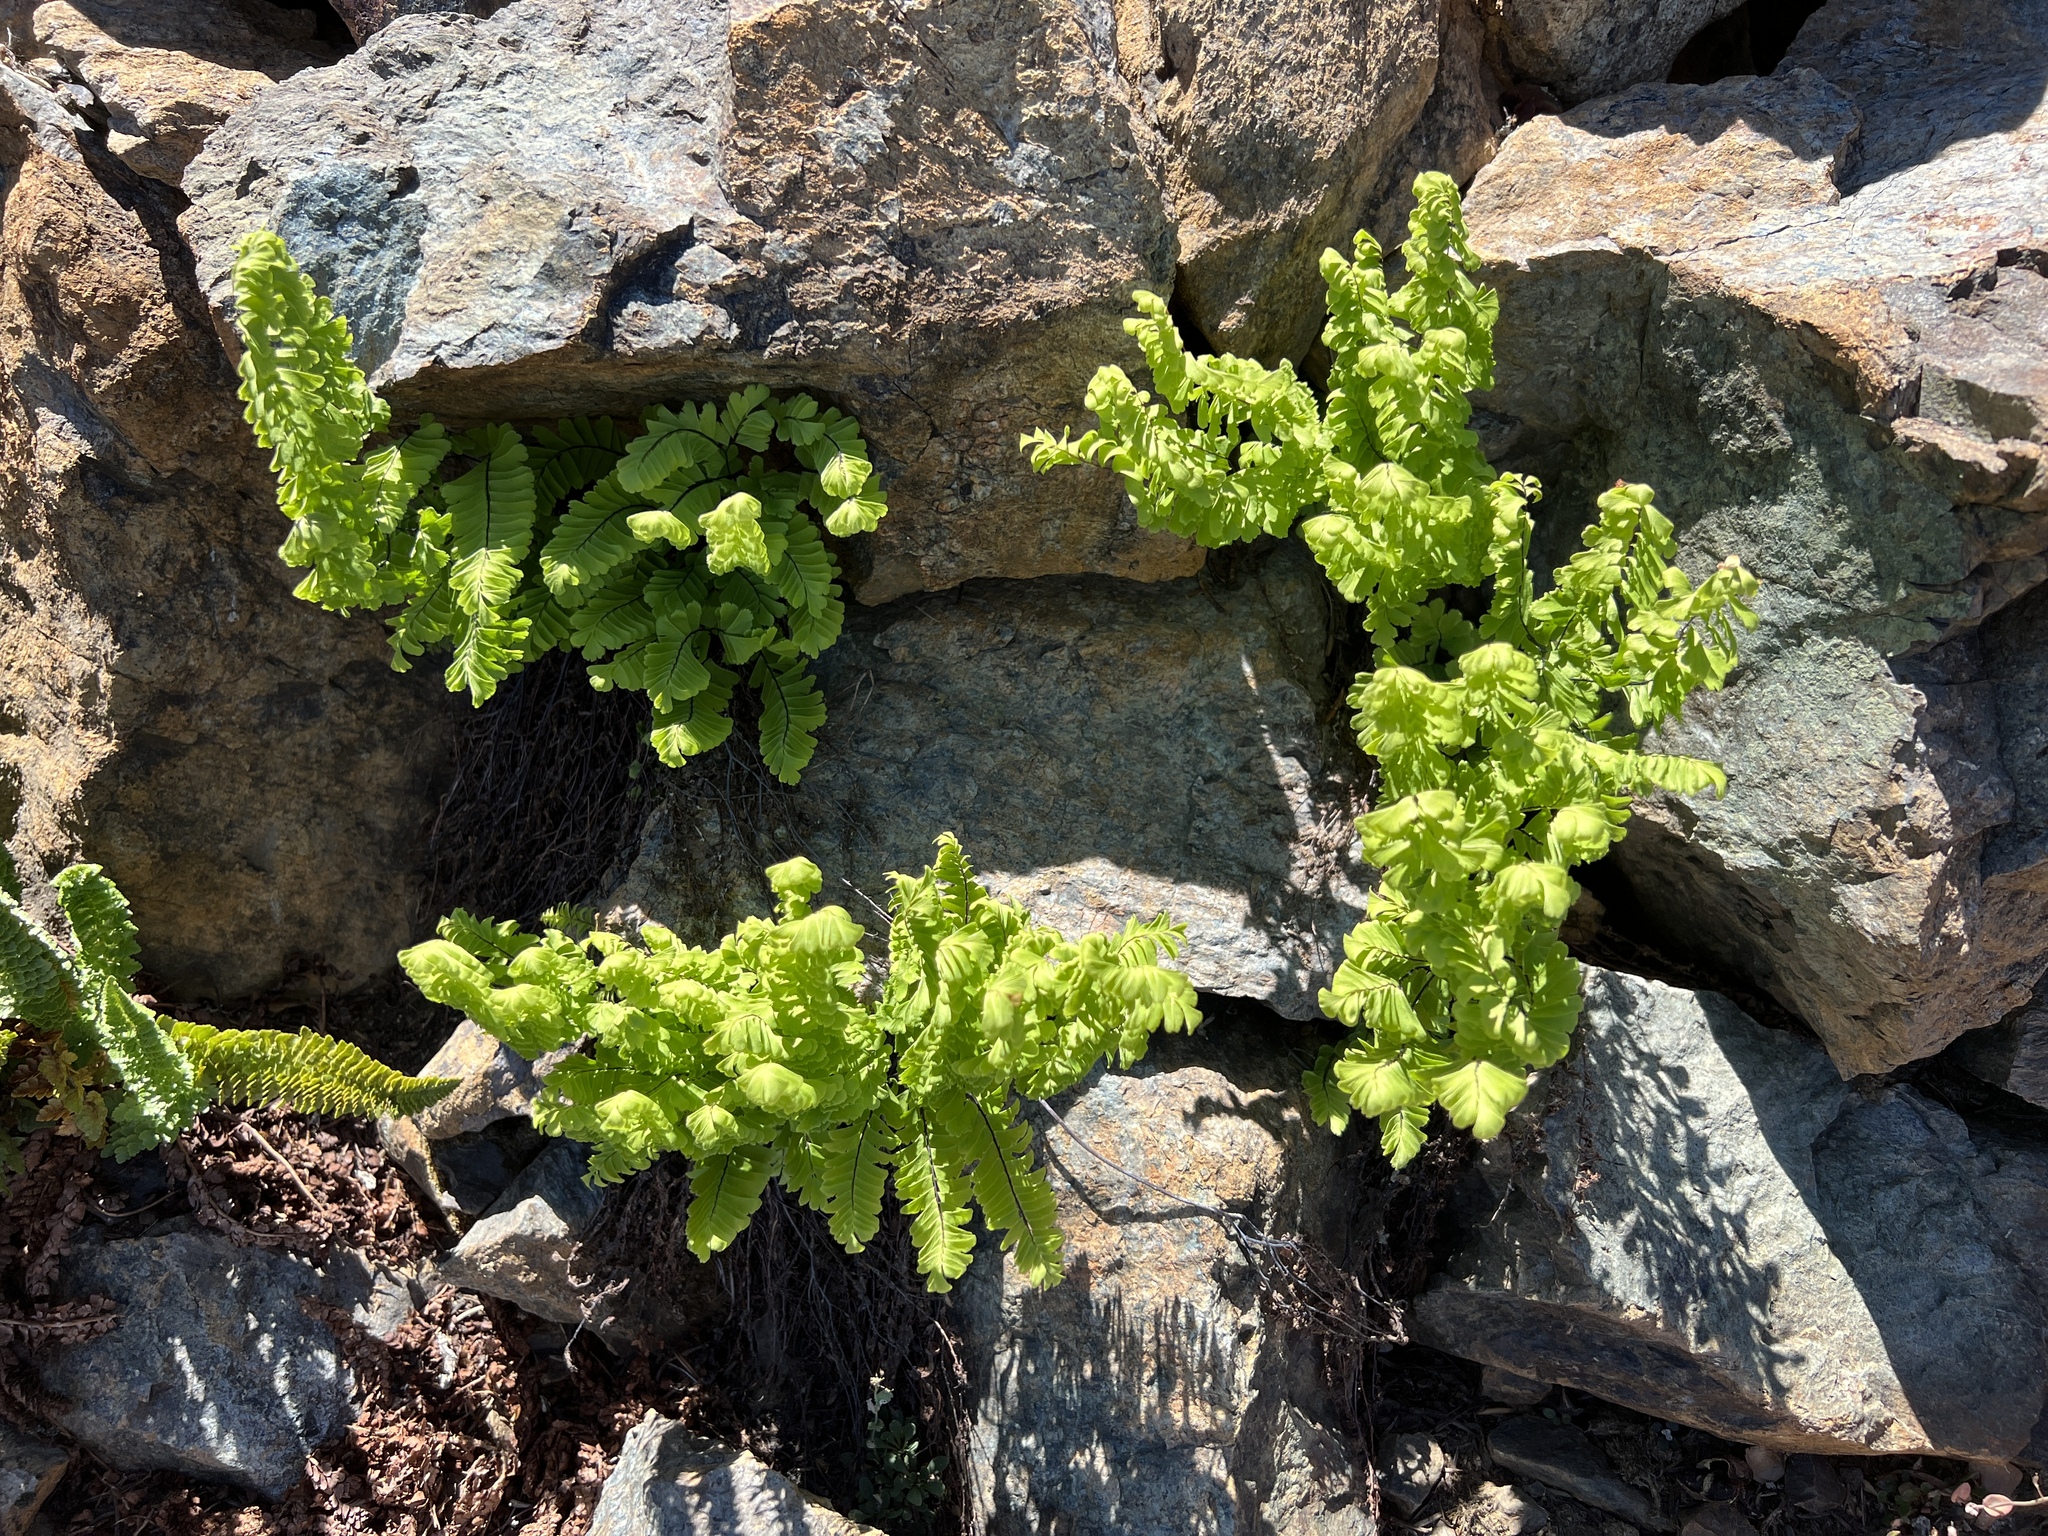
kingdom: Plantae
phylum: Tracheophyta
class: Polypodiopsida
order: Polypodiales
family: Pteridaceae
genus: Adiantum
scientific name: Adiantum aleuticum
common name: Aleutian maidenhair fern
